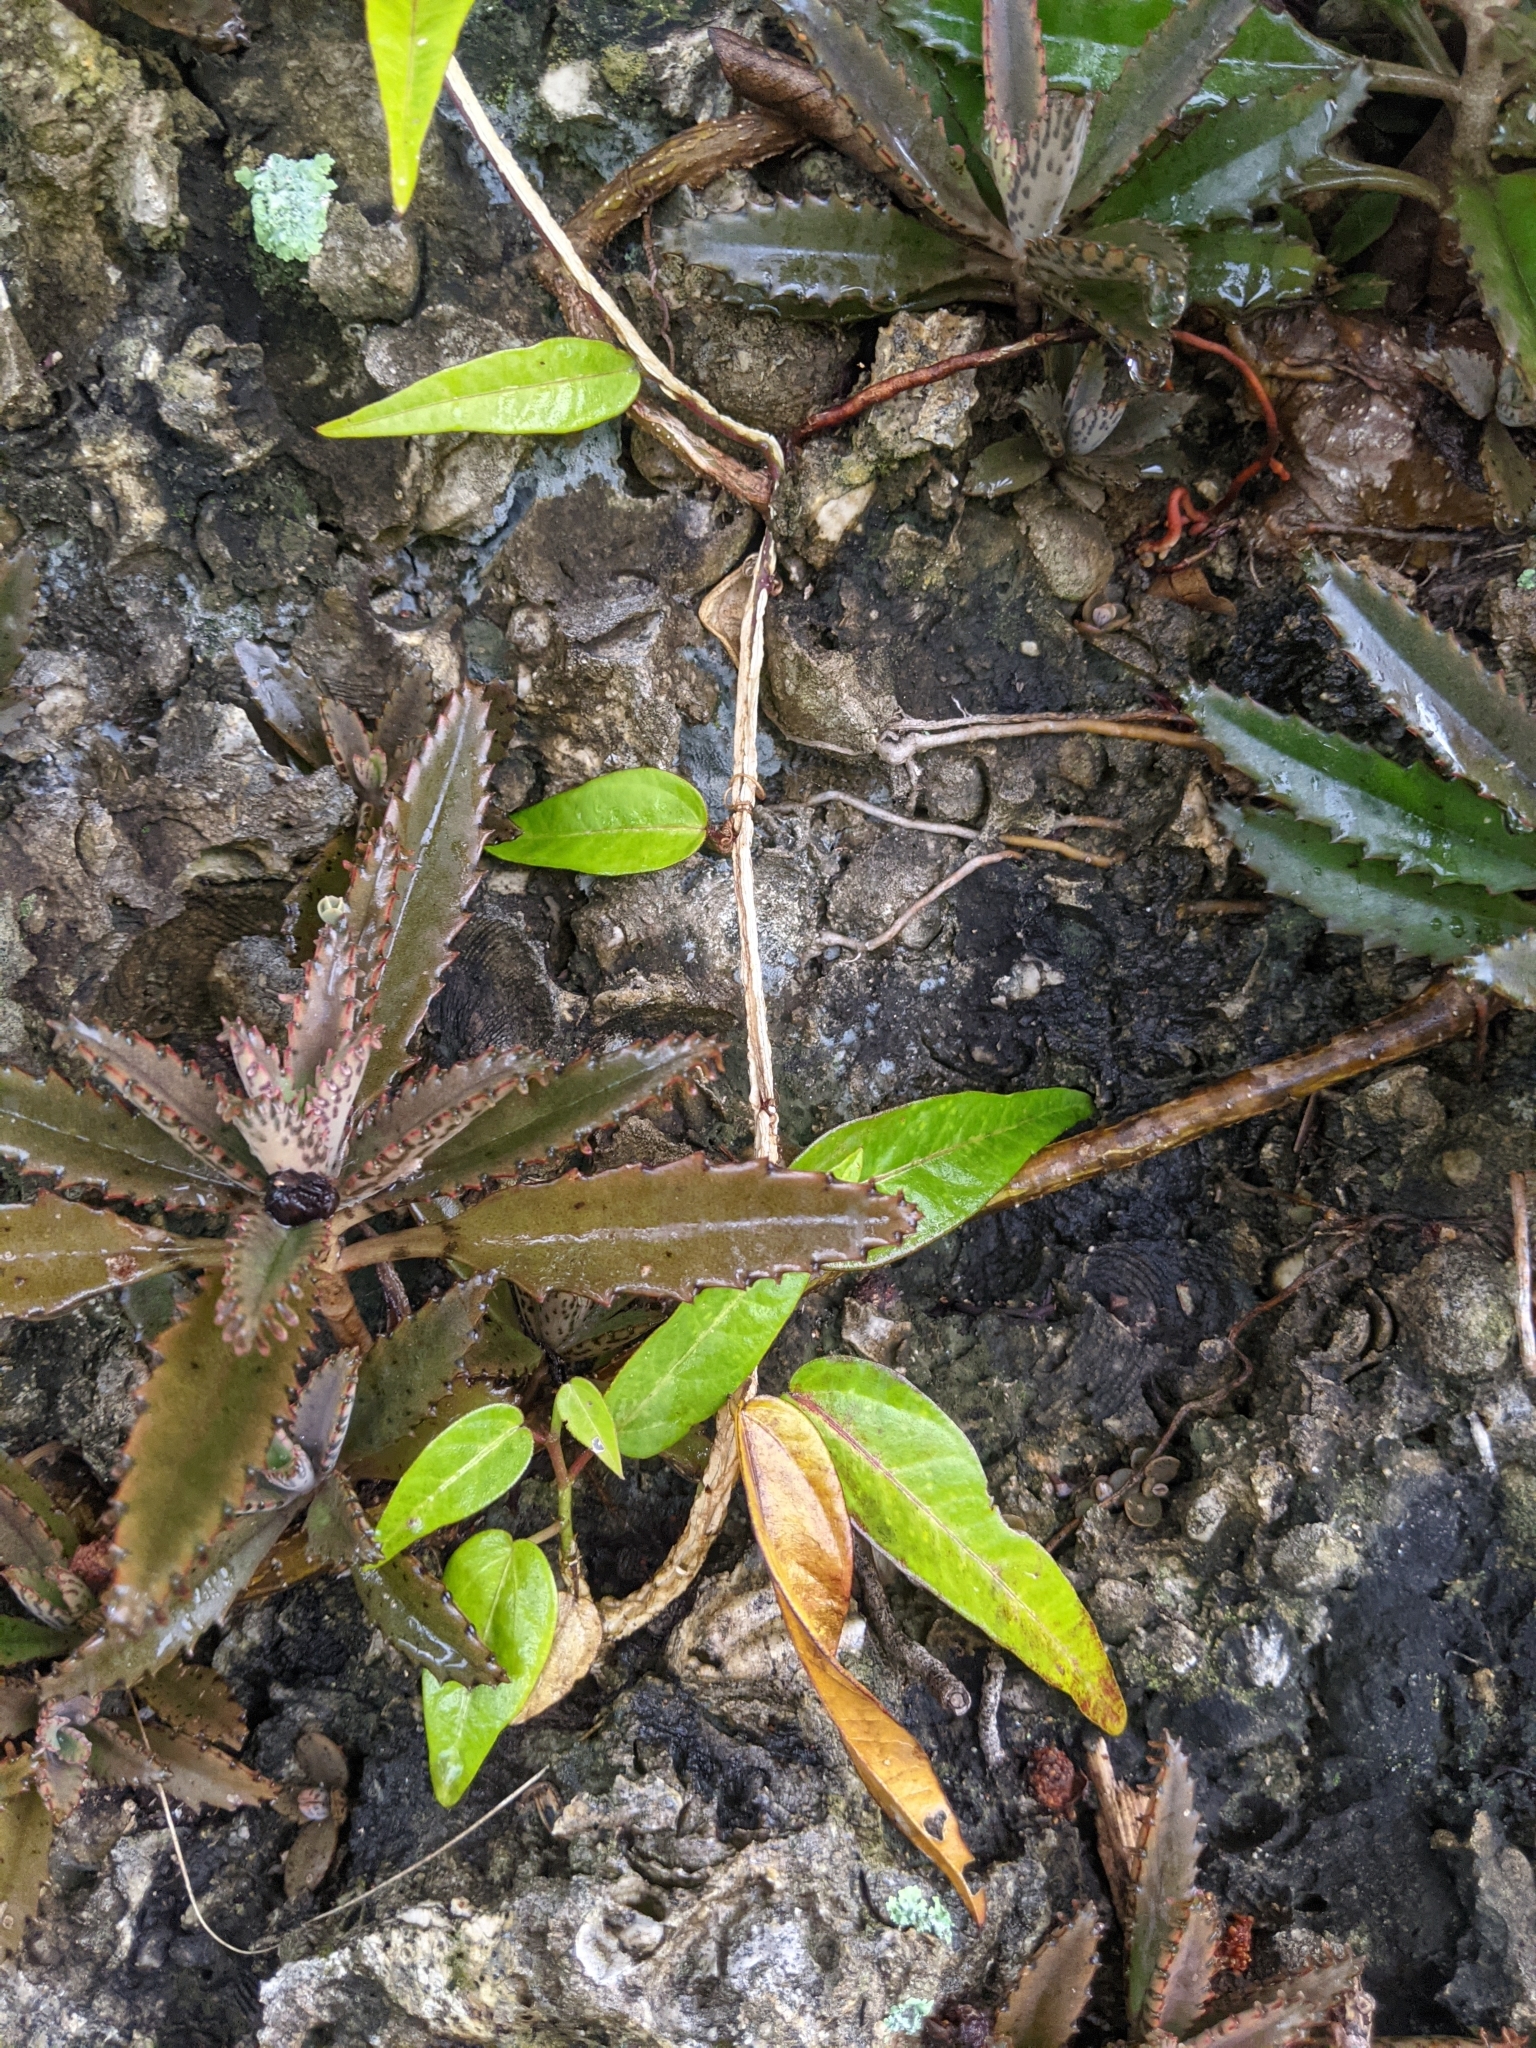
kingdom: Plantae
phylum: Tracheophyta
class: Magnoliopsida
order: Malpighiales
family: Passifloraceae
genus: Passiflora
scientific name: Passiflora pallida
